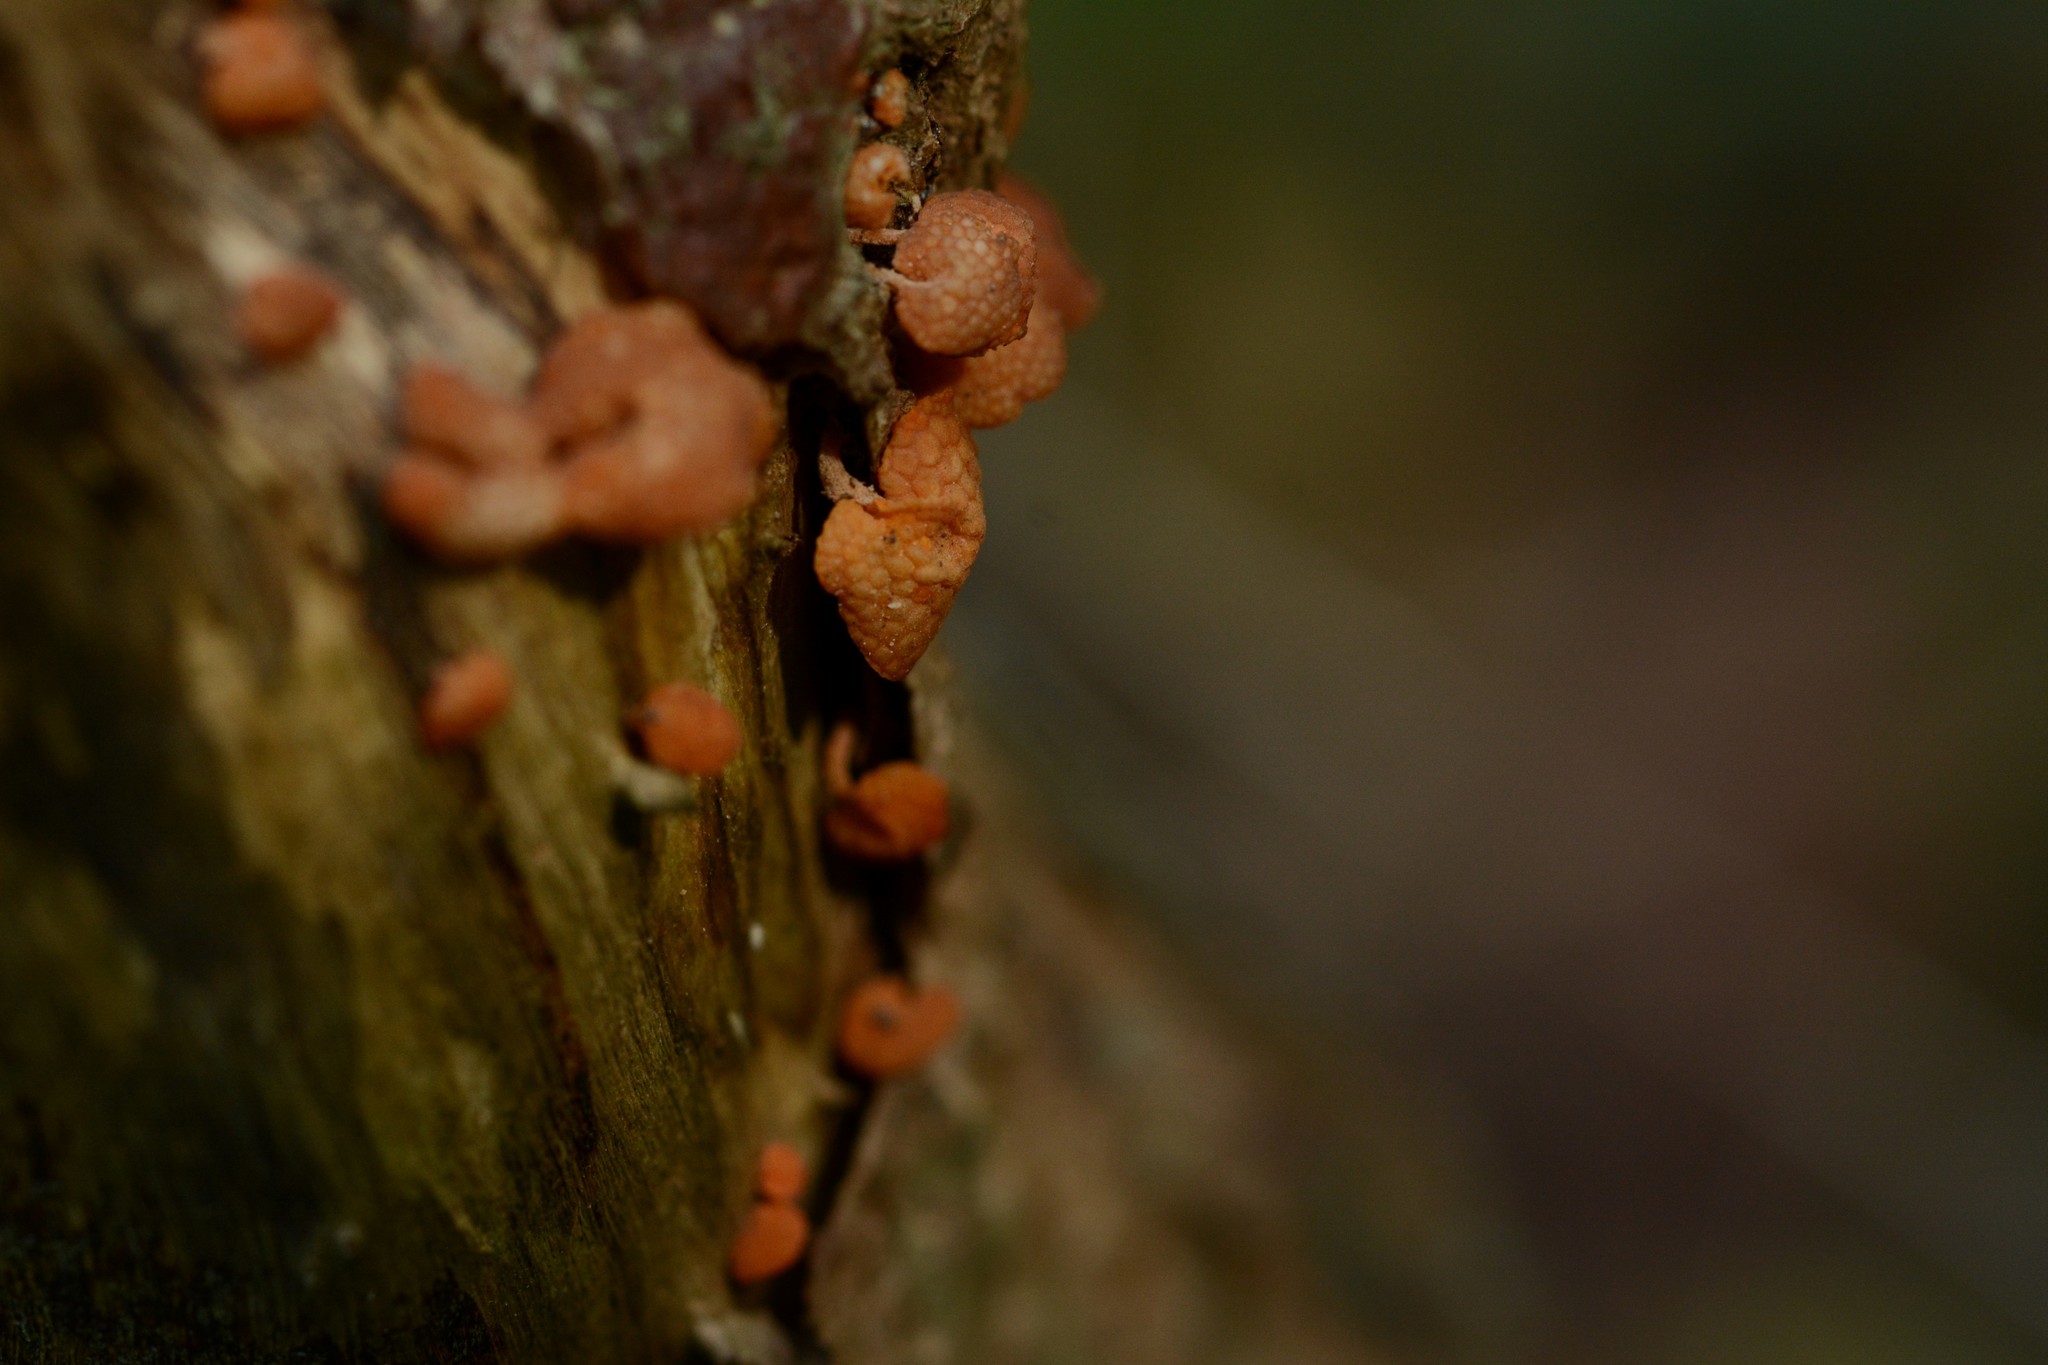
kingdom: Fungi
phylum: Basidiomycota
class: Agaricomycetes
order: Agaricales
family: Mycenaceae
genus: Favolaschia
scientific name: Favolaschia claudopus
